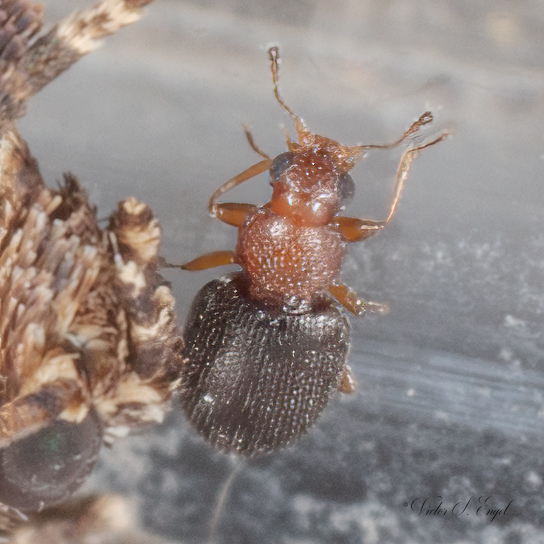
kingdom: Animalia
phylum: Arthropoda
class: Insecta
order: Coleoptera
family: Latridiidae
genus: Melanophthalma
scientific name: Melanophthalma
